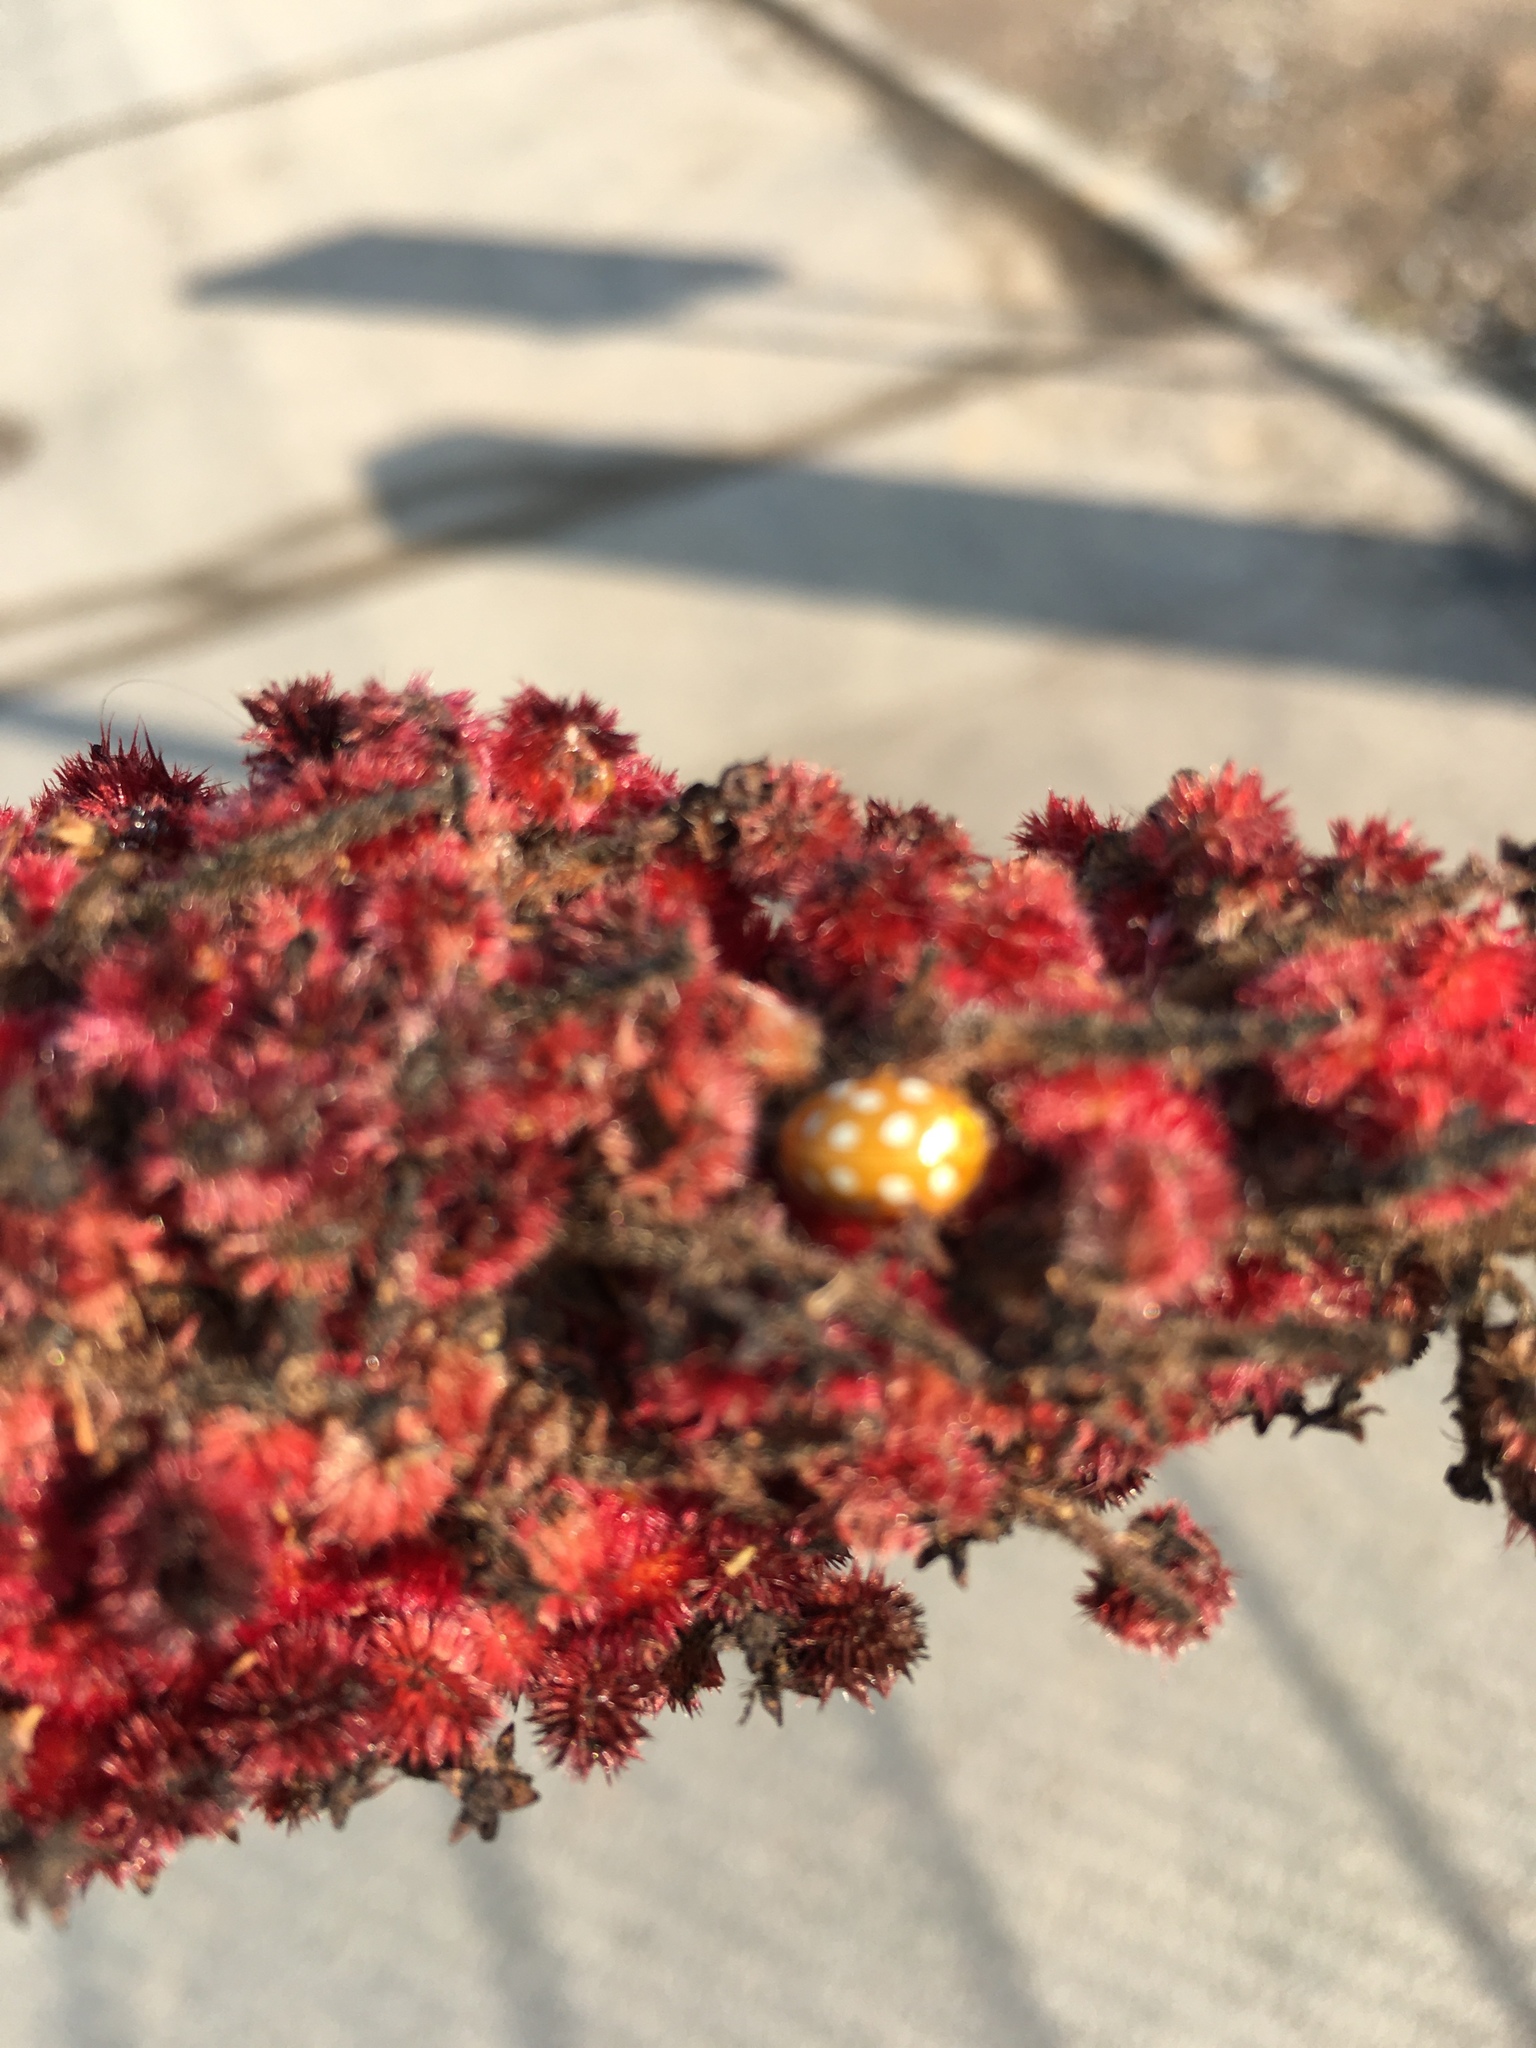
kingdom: Animalia
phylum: Arthropoda
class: Insecta
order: Coleoptera
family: Coccinellidae
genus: Halyzia
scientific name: Halyzia sedecimguttata
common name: Orange ladybird
